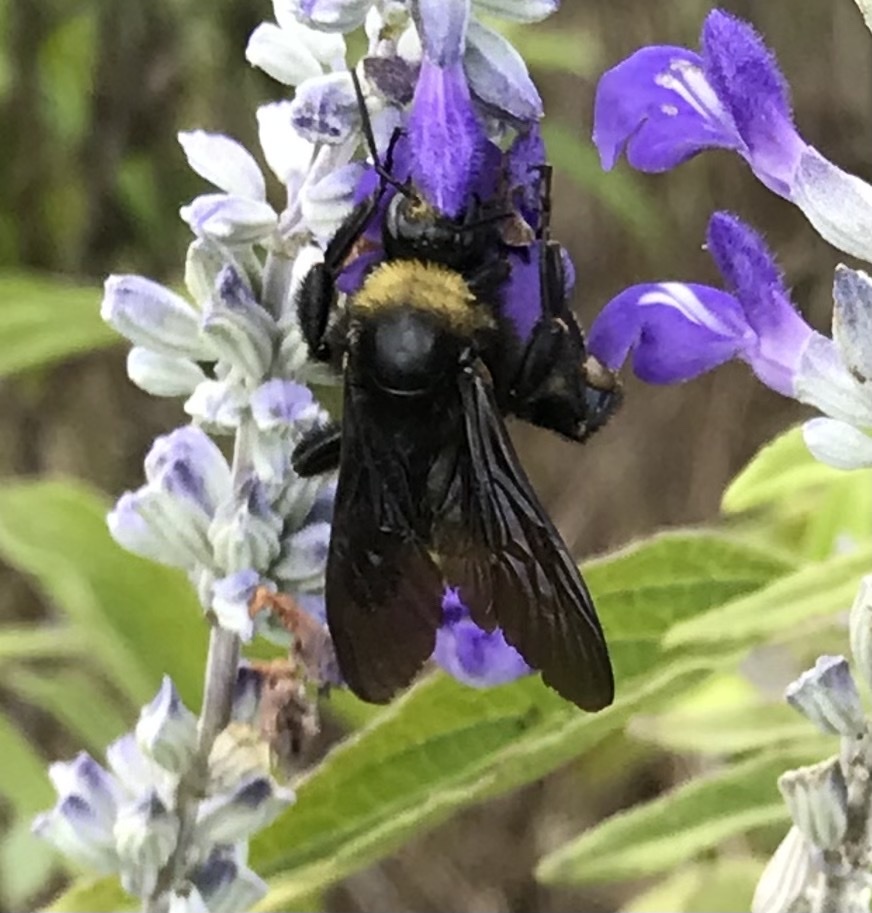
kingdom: Animalia
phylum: Arthropoda
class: Insecta
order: Hymenoptera
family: Apidae
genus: Bombus
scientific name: Bombus pensylvanicus
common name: Bumble bee
